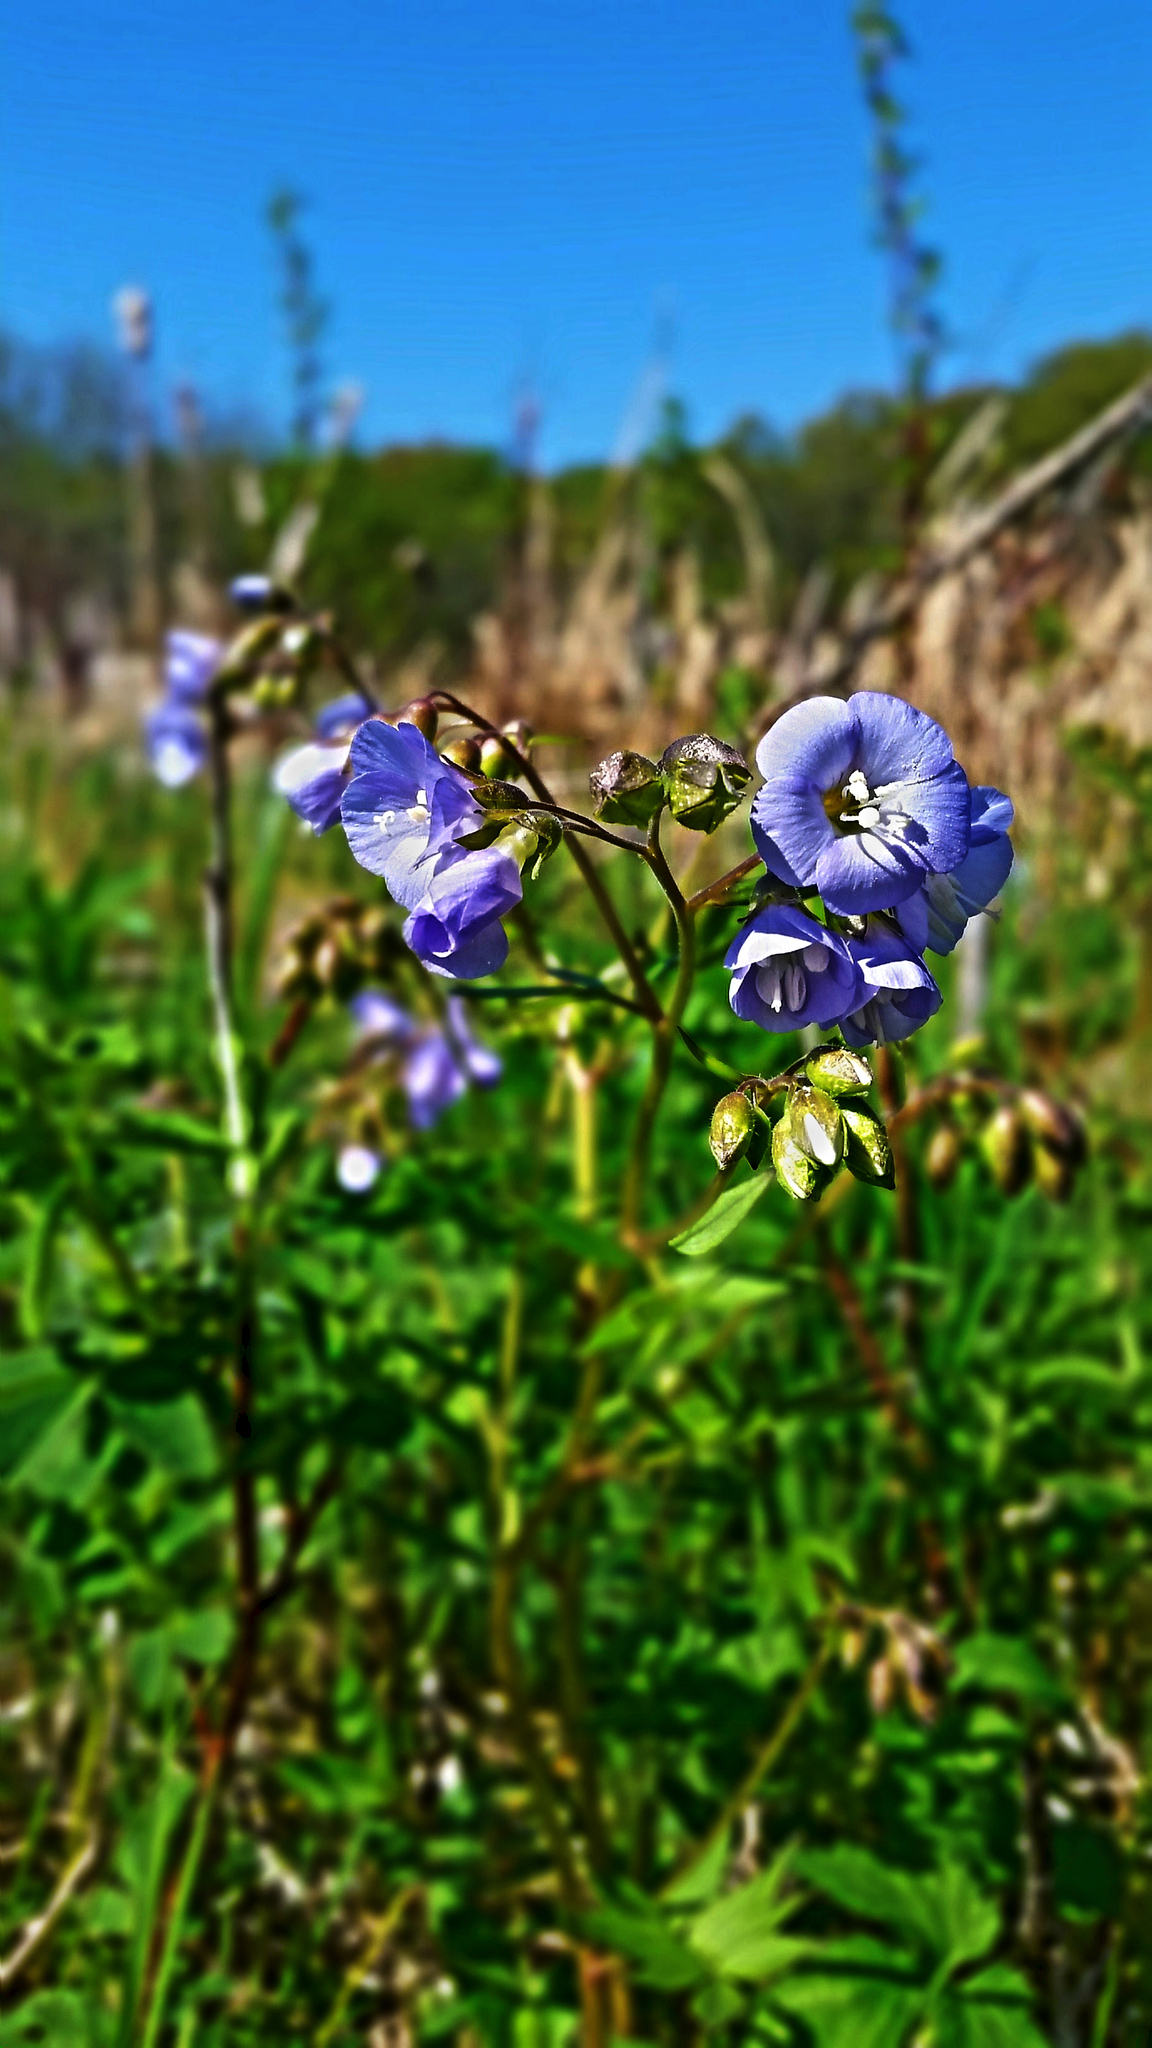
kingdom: Plantae
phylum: Tracheophyta
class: Magnoliopsida
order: Ericales
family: Polemoniaceae
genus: Polemonium
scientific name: Polemonium reptans
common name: Creeping jacob's-ladder
